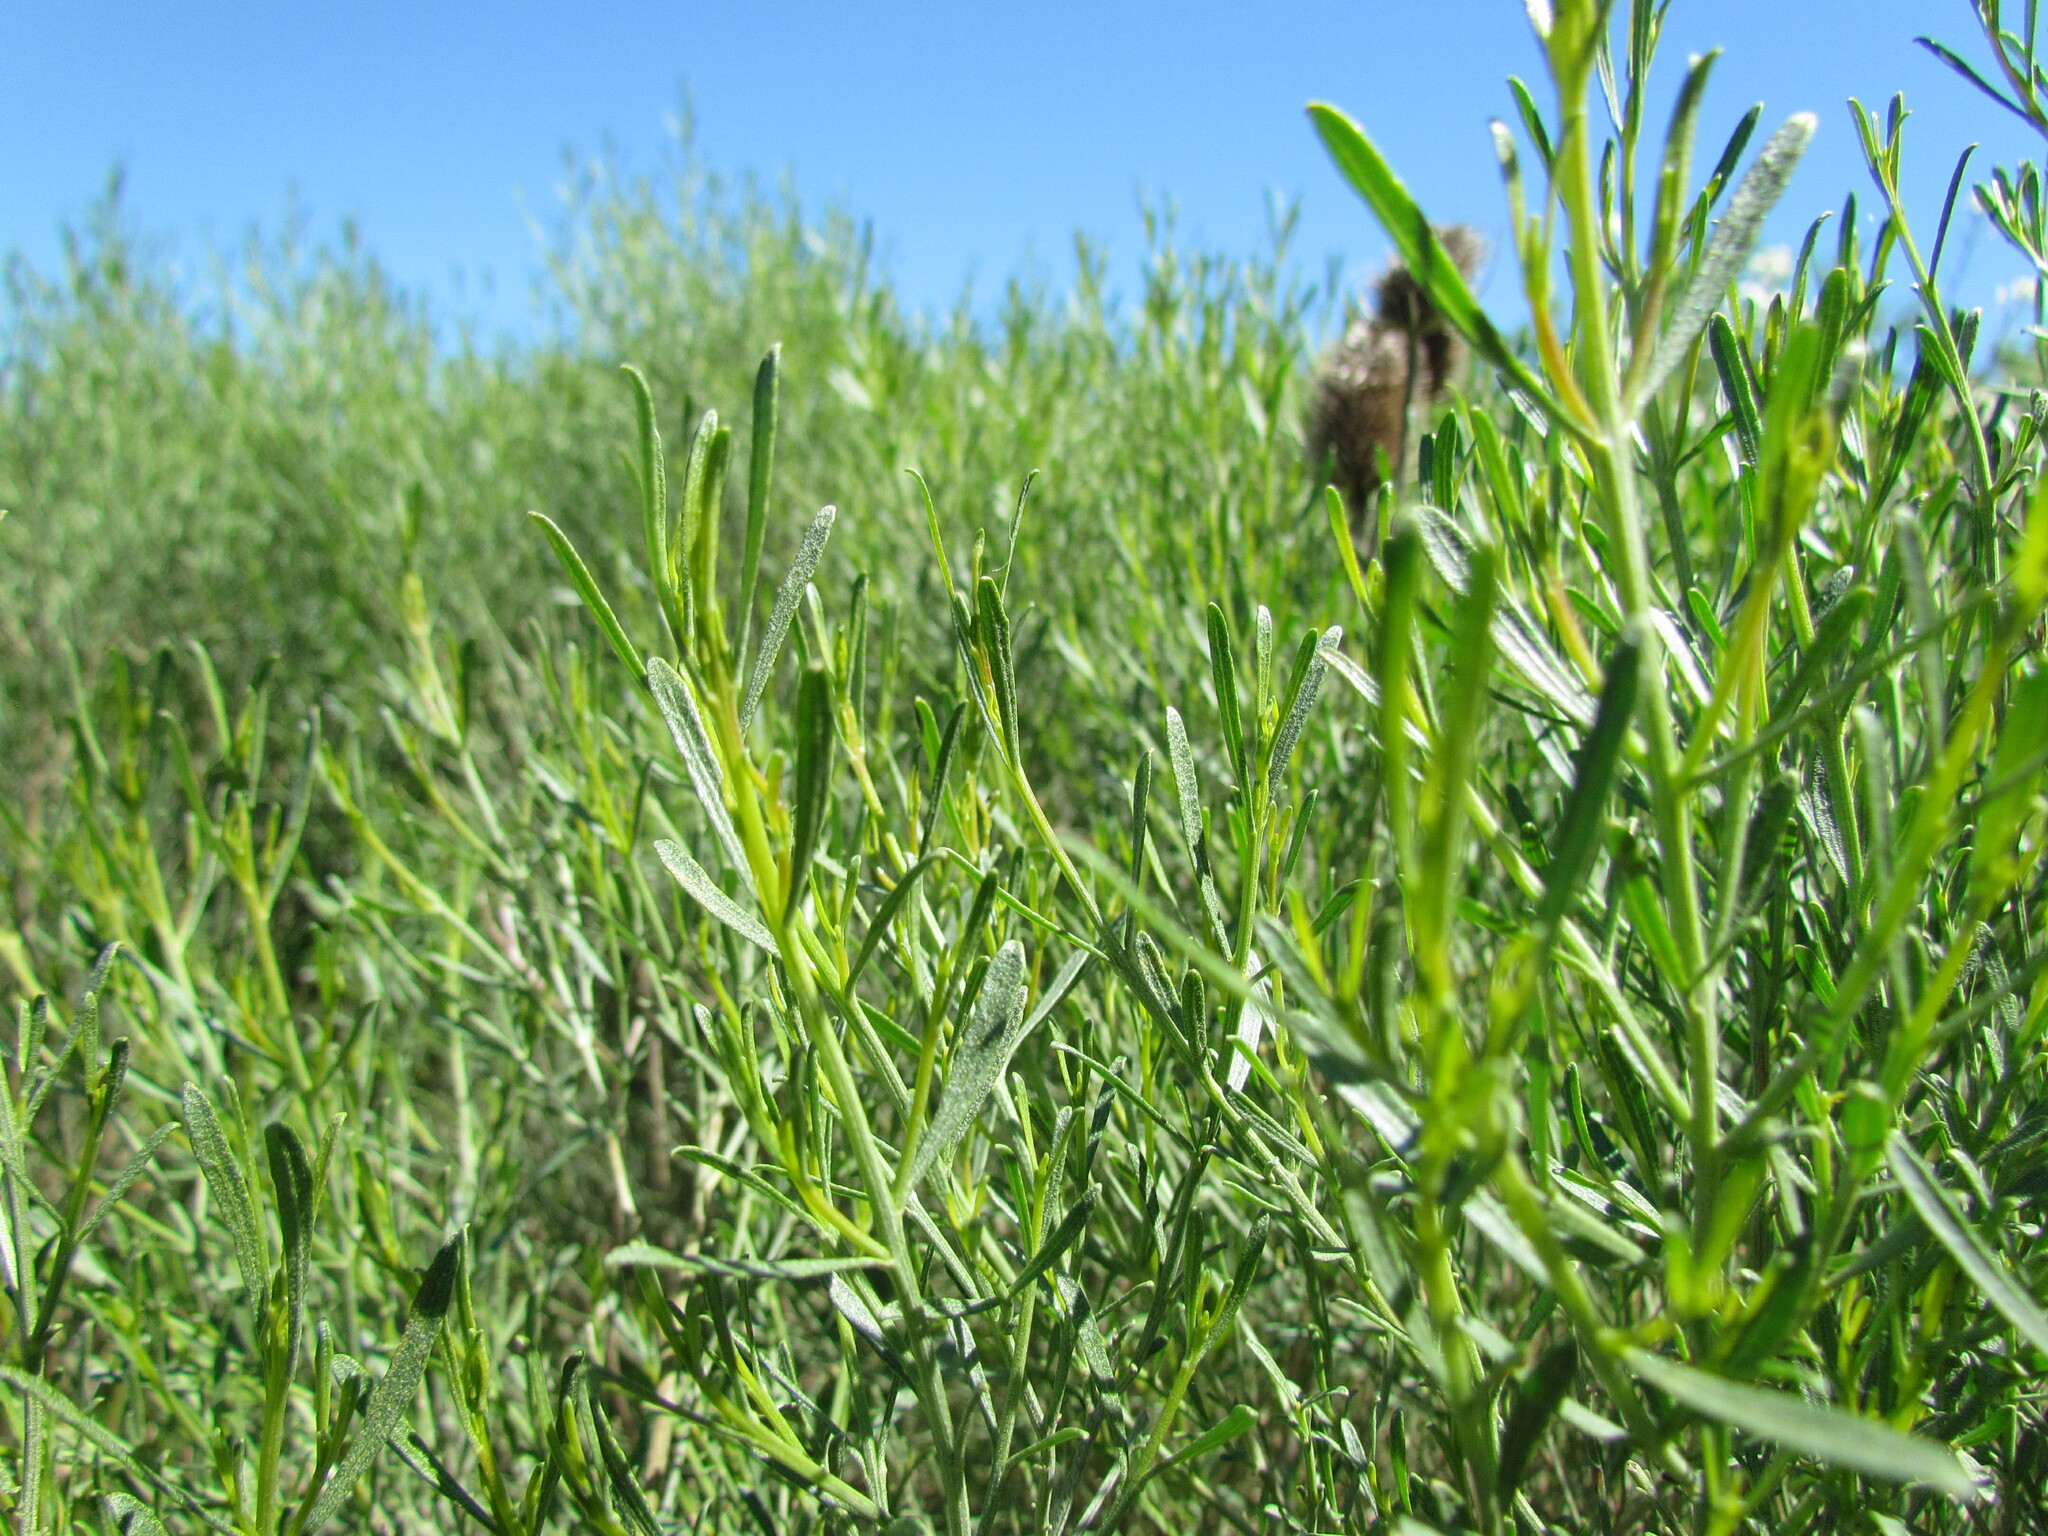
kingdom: Plantae
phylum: Tracheophyta
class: Magnoliopsida
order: Asterales
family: Asteraceae
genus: Baccharis
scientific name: Baccharis notosergila
